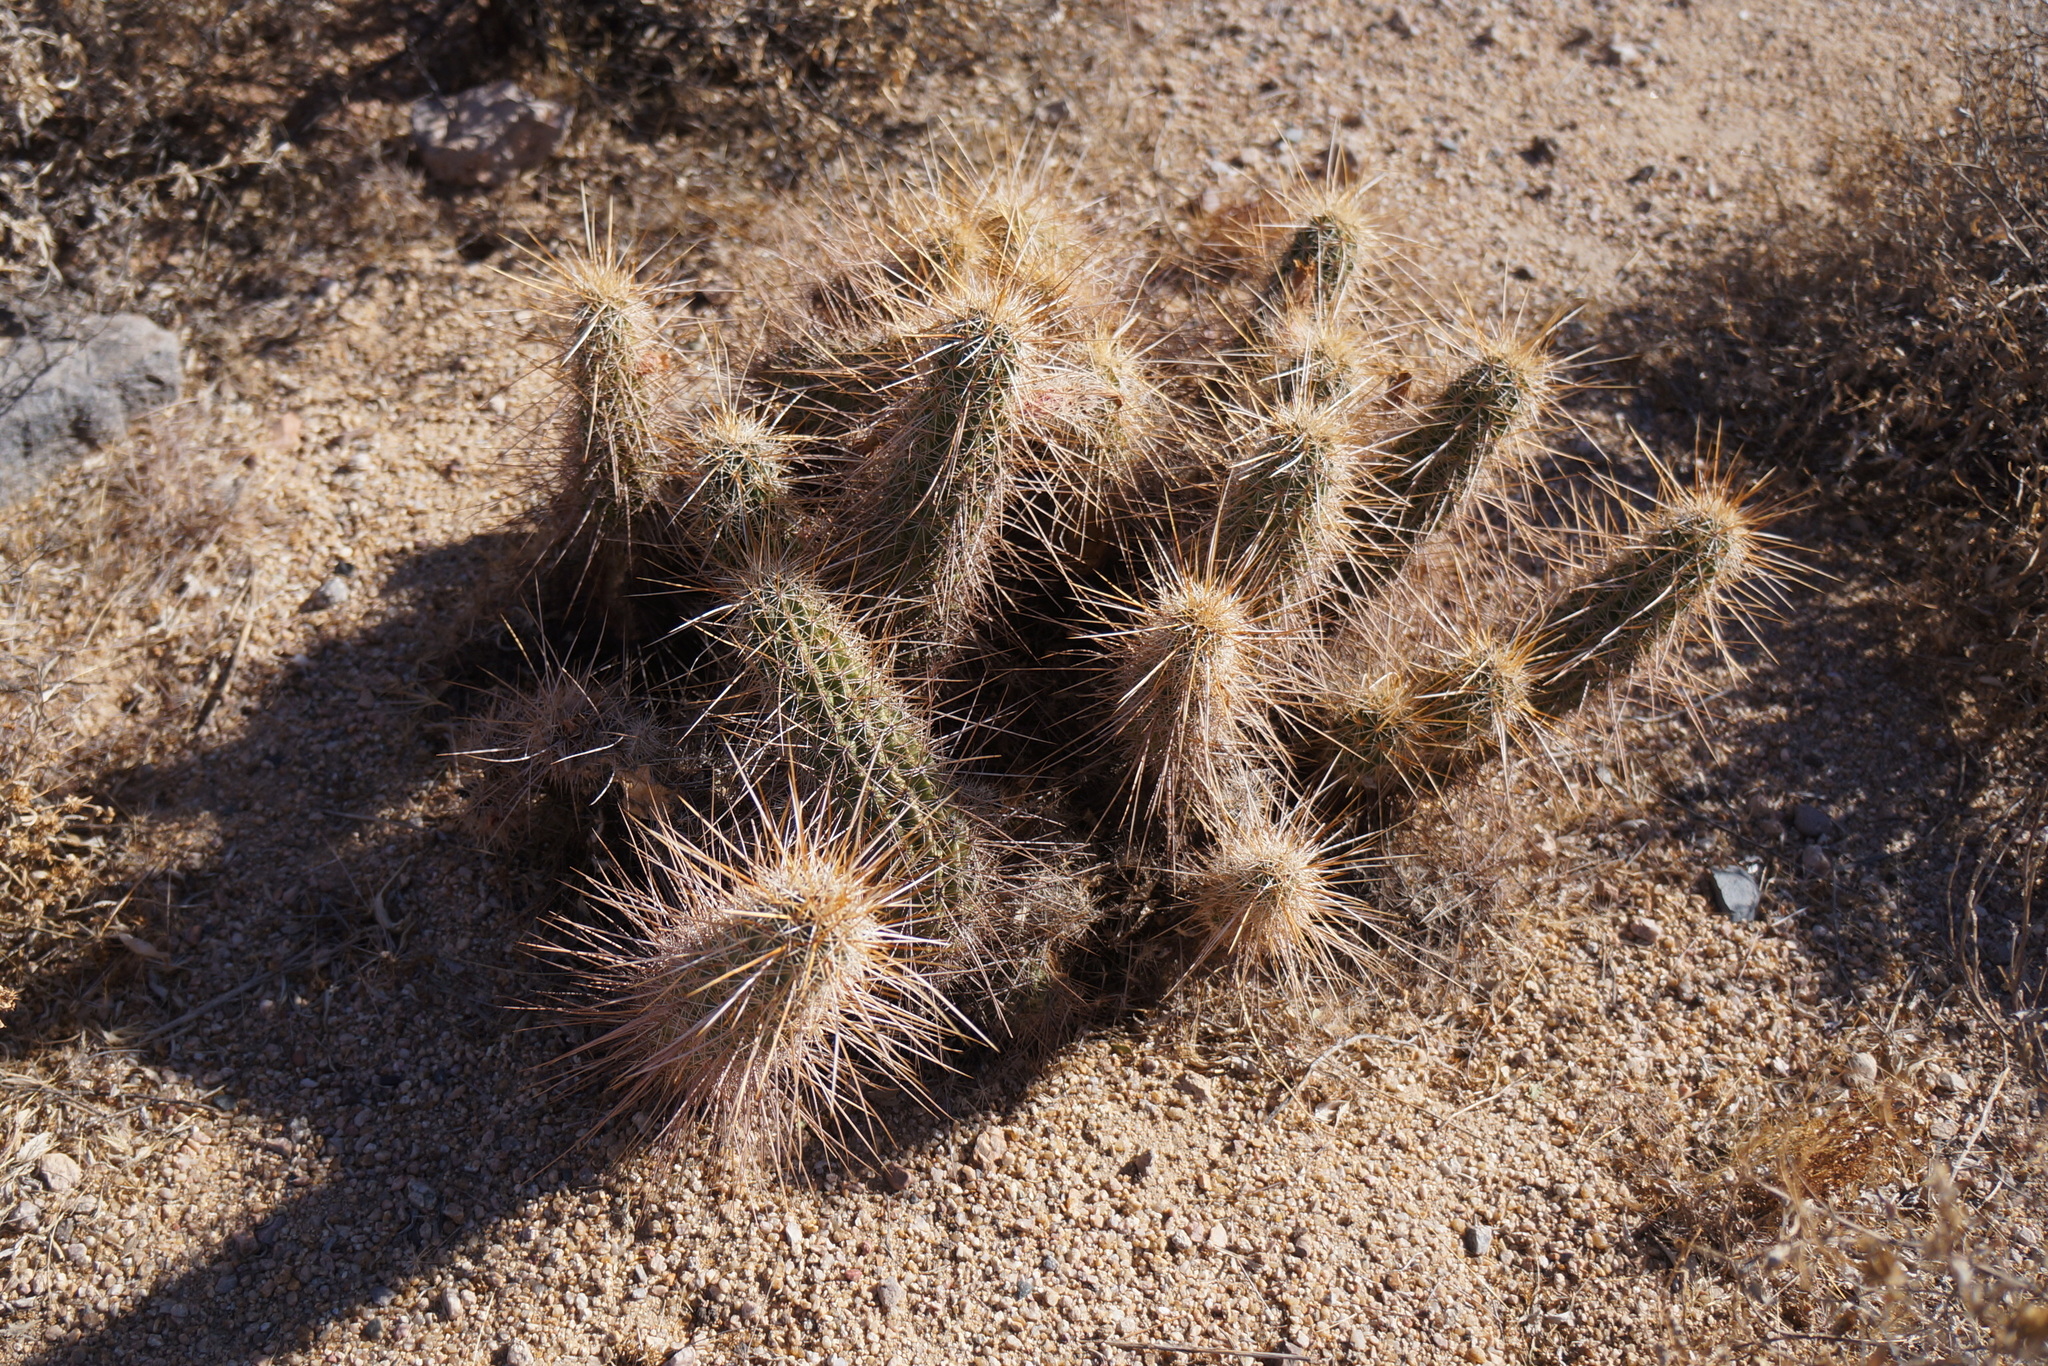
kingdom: Plantae
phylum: Tracheophyta
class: Magnoliopsida
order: Caryophyllales
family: Cactaceae
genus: Echinocereus
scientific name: Echinocereus engelmannii
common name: Engelmann's hedgehog cactus
